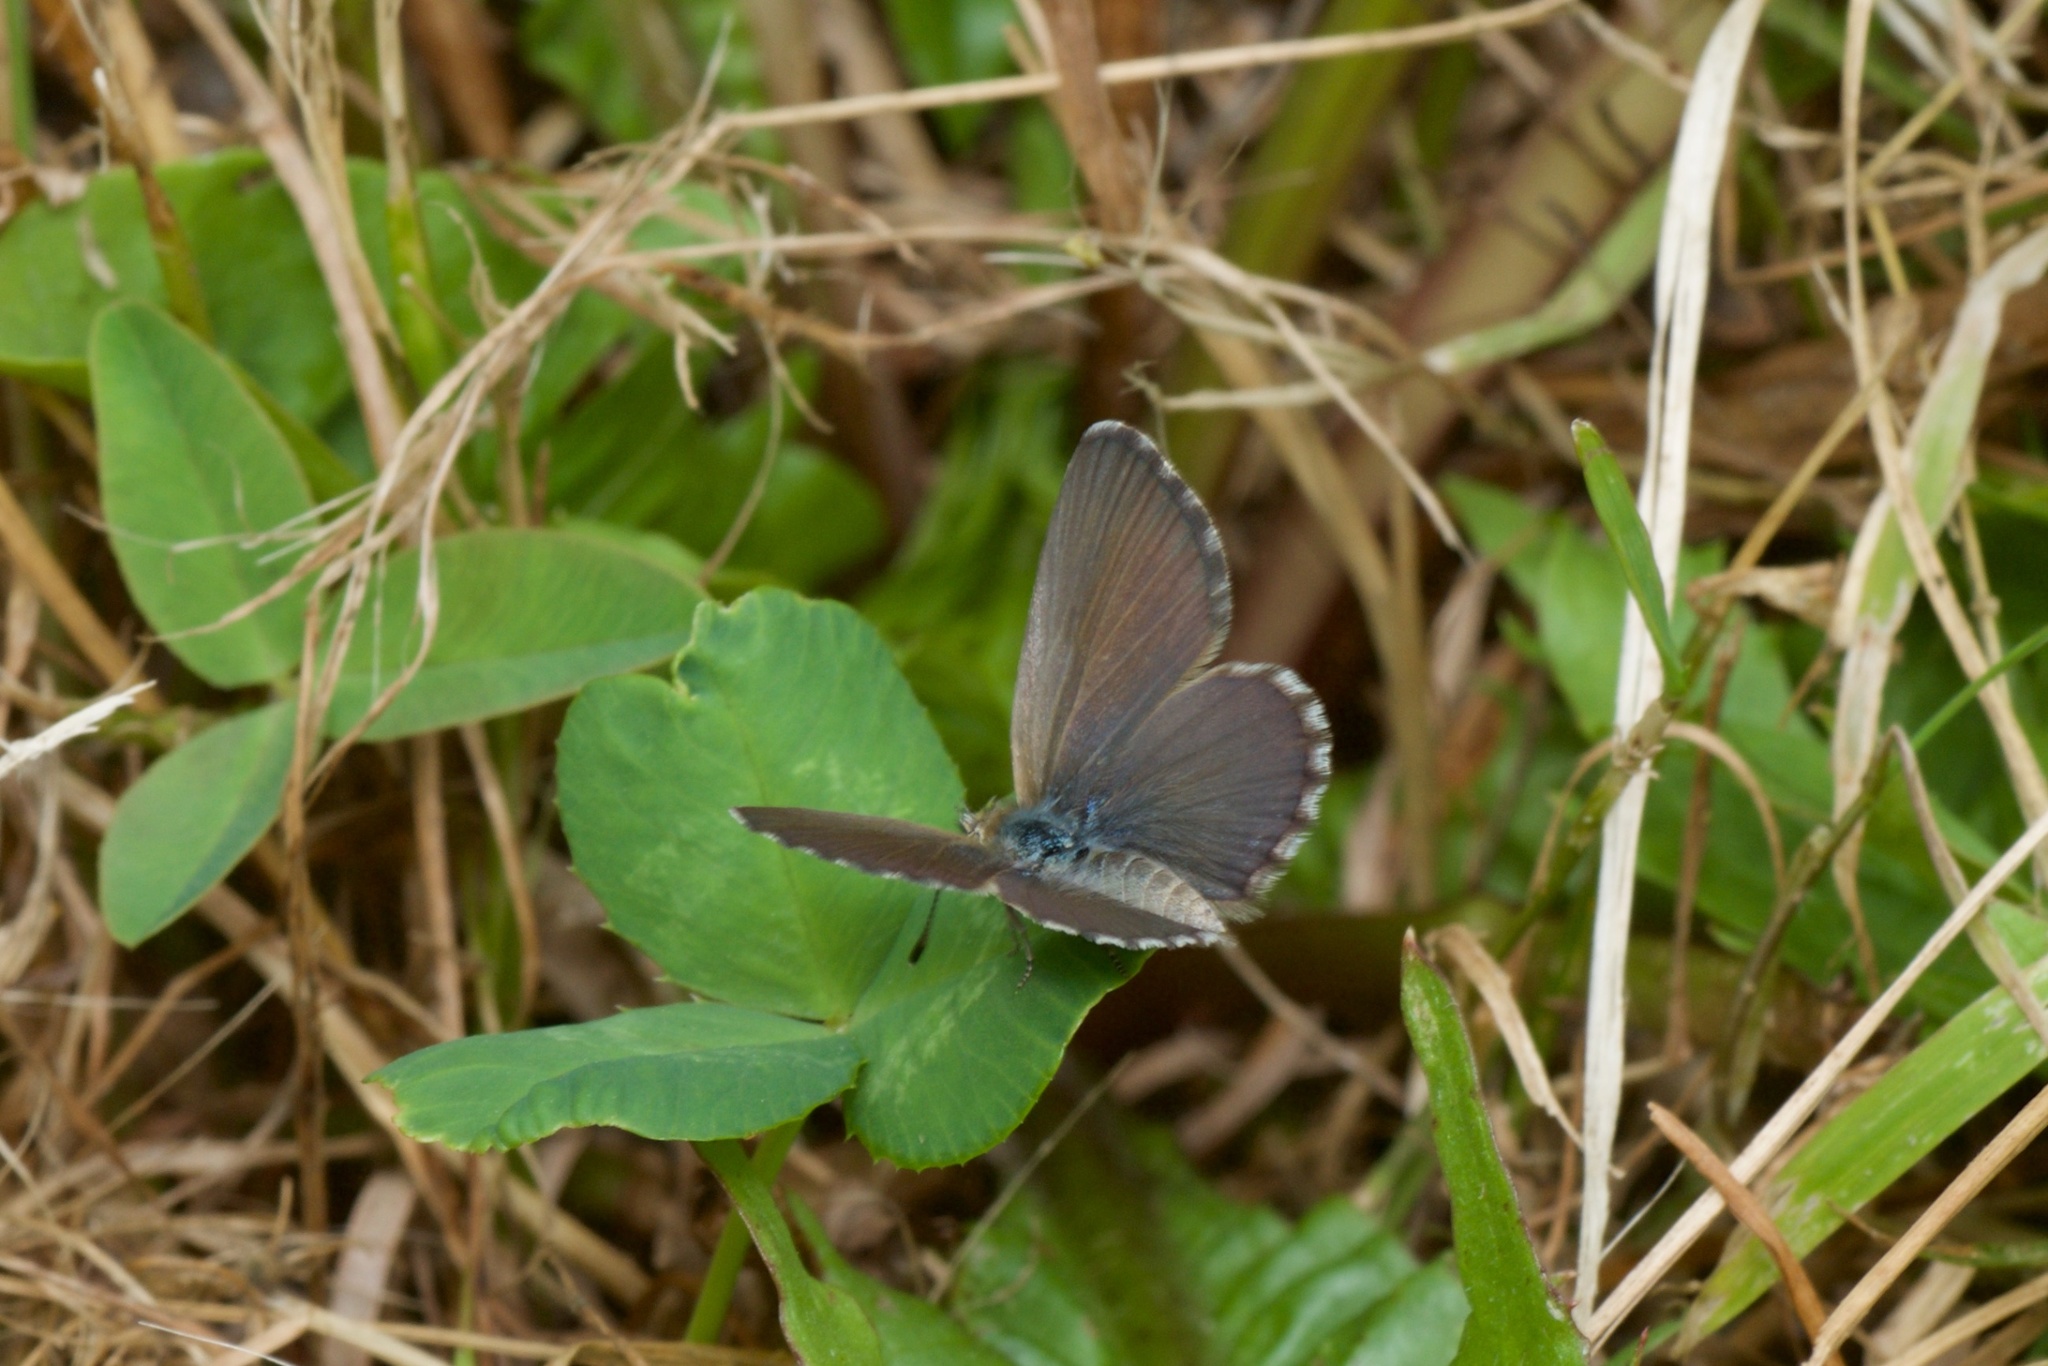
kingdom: Animalia
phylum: Arthropoda
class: Insecta
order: Lepidoptera
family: Lycaenidae
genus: Zizina
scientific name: Zizina oxleyi
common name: Southern blue
